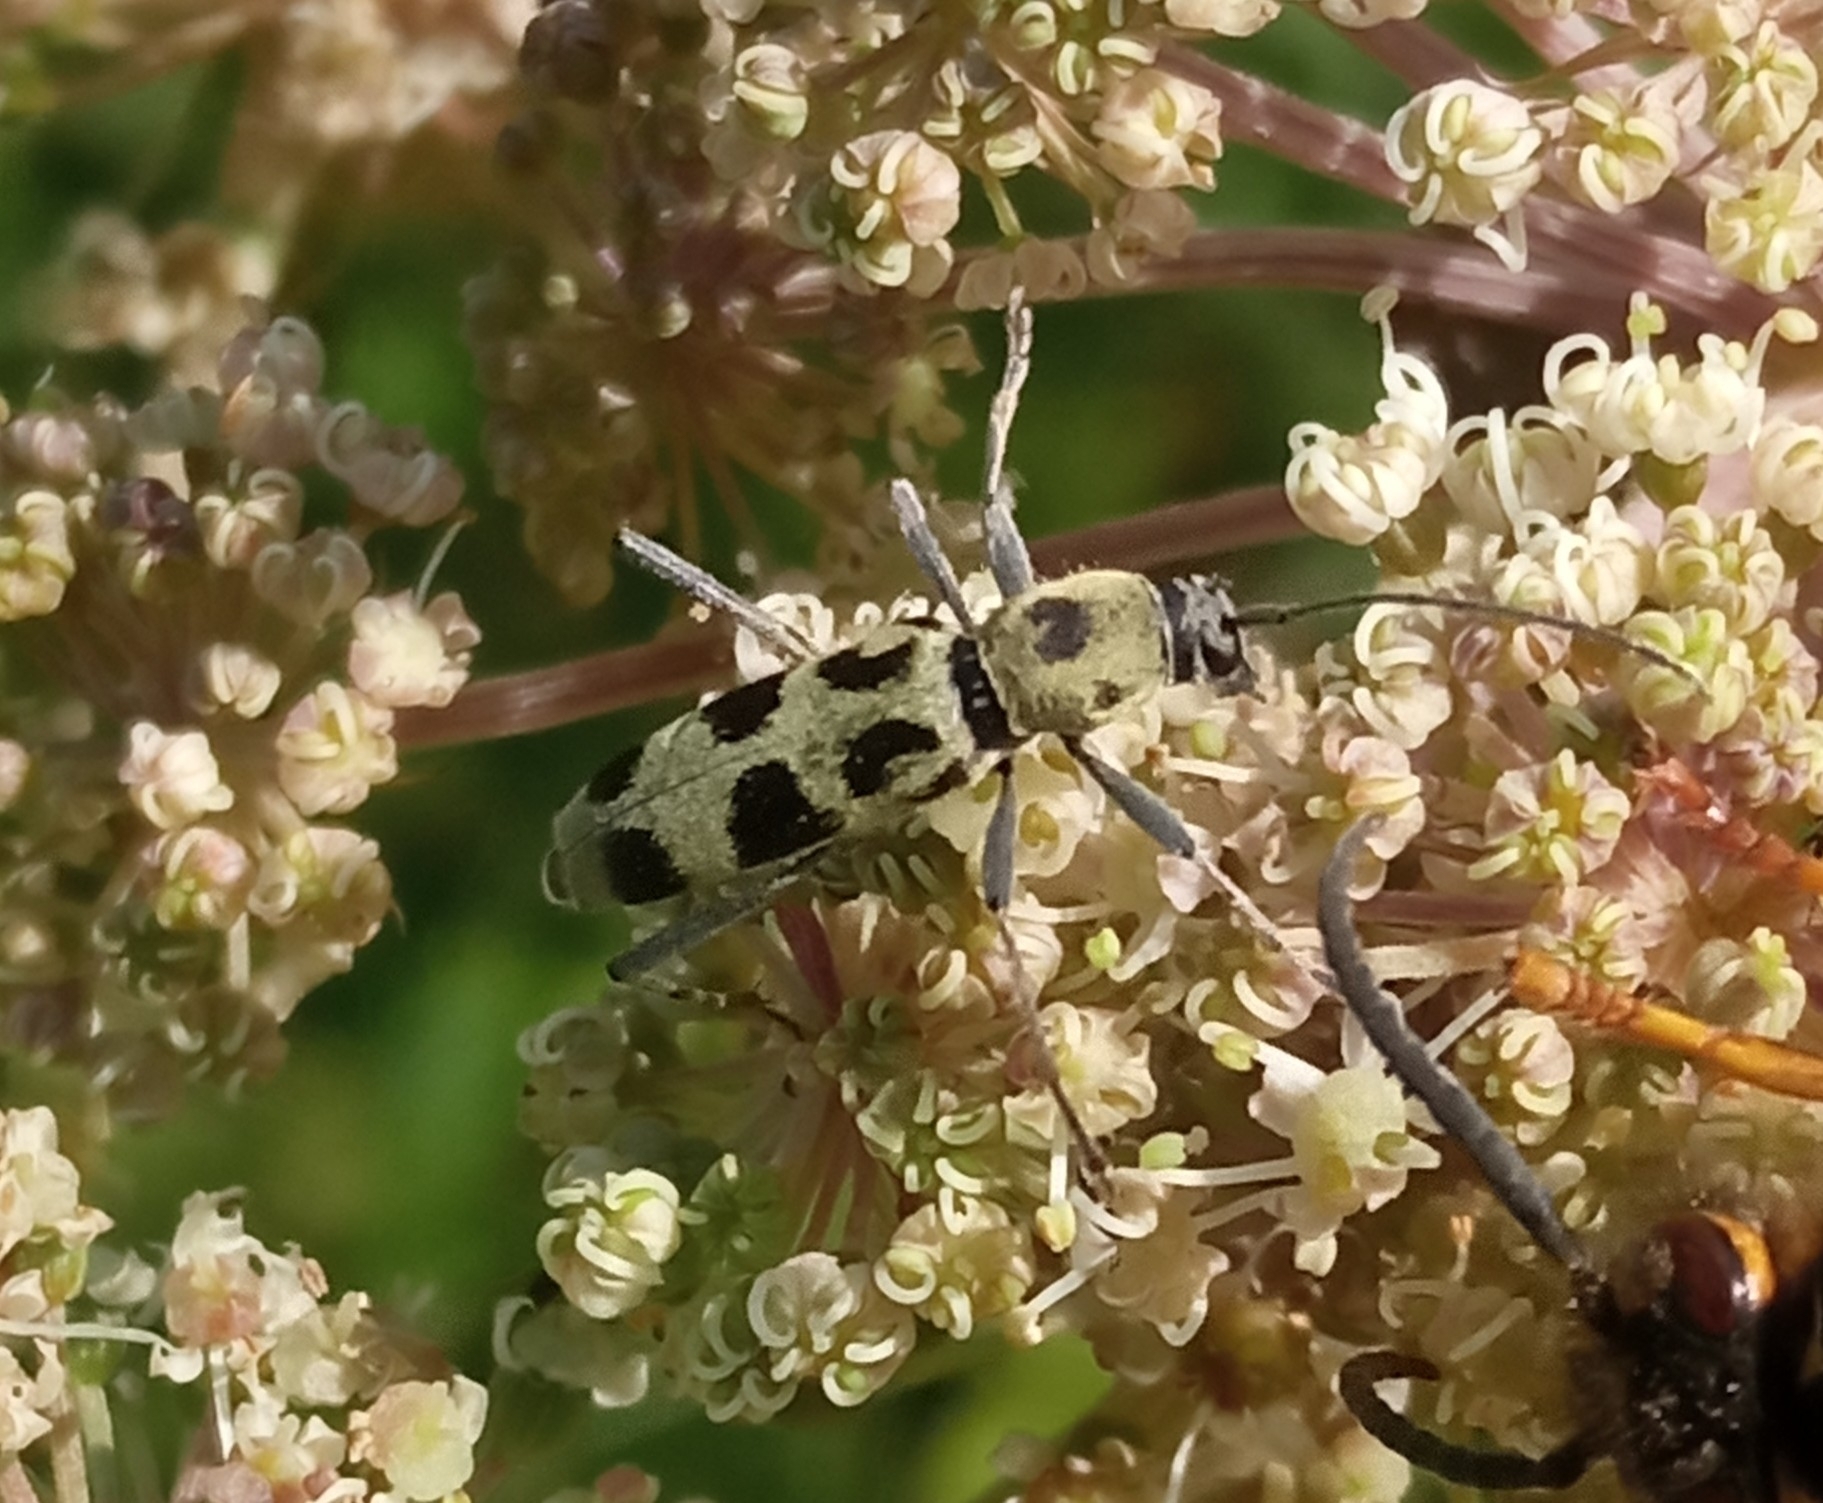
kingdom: Animalia
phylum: Arthropoda
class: Insecta
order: Coleoptera
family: Cerambycidae
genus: Chlorophorus
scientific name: Chlorophorus herbstii
